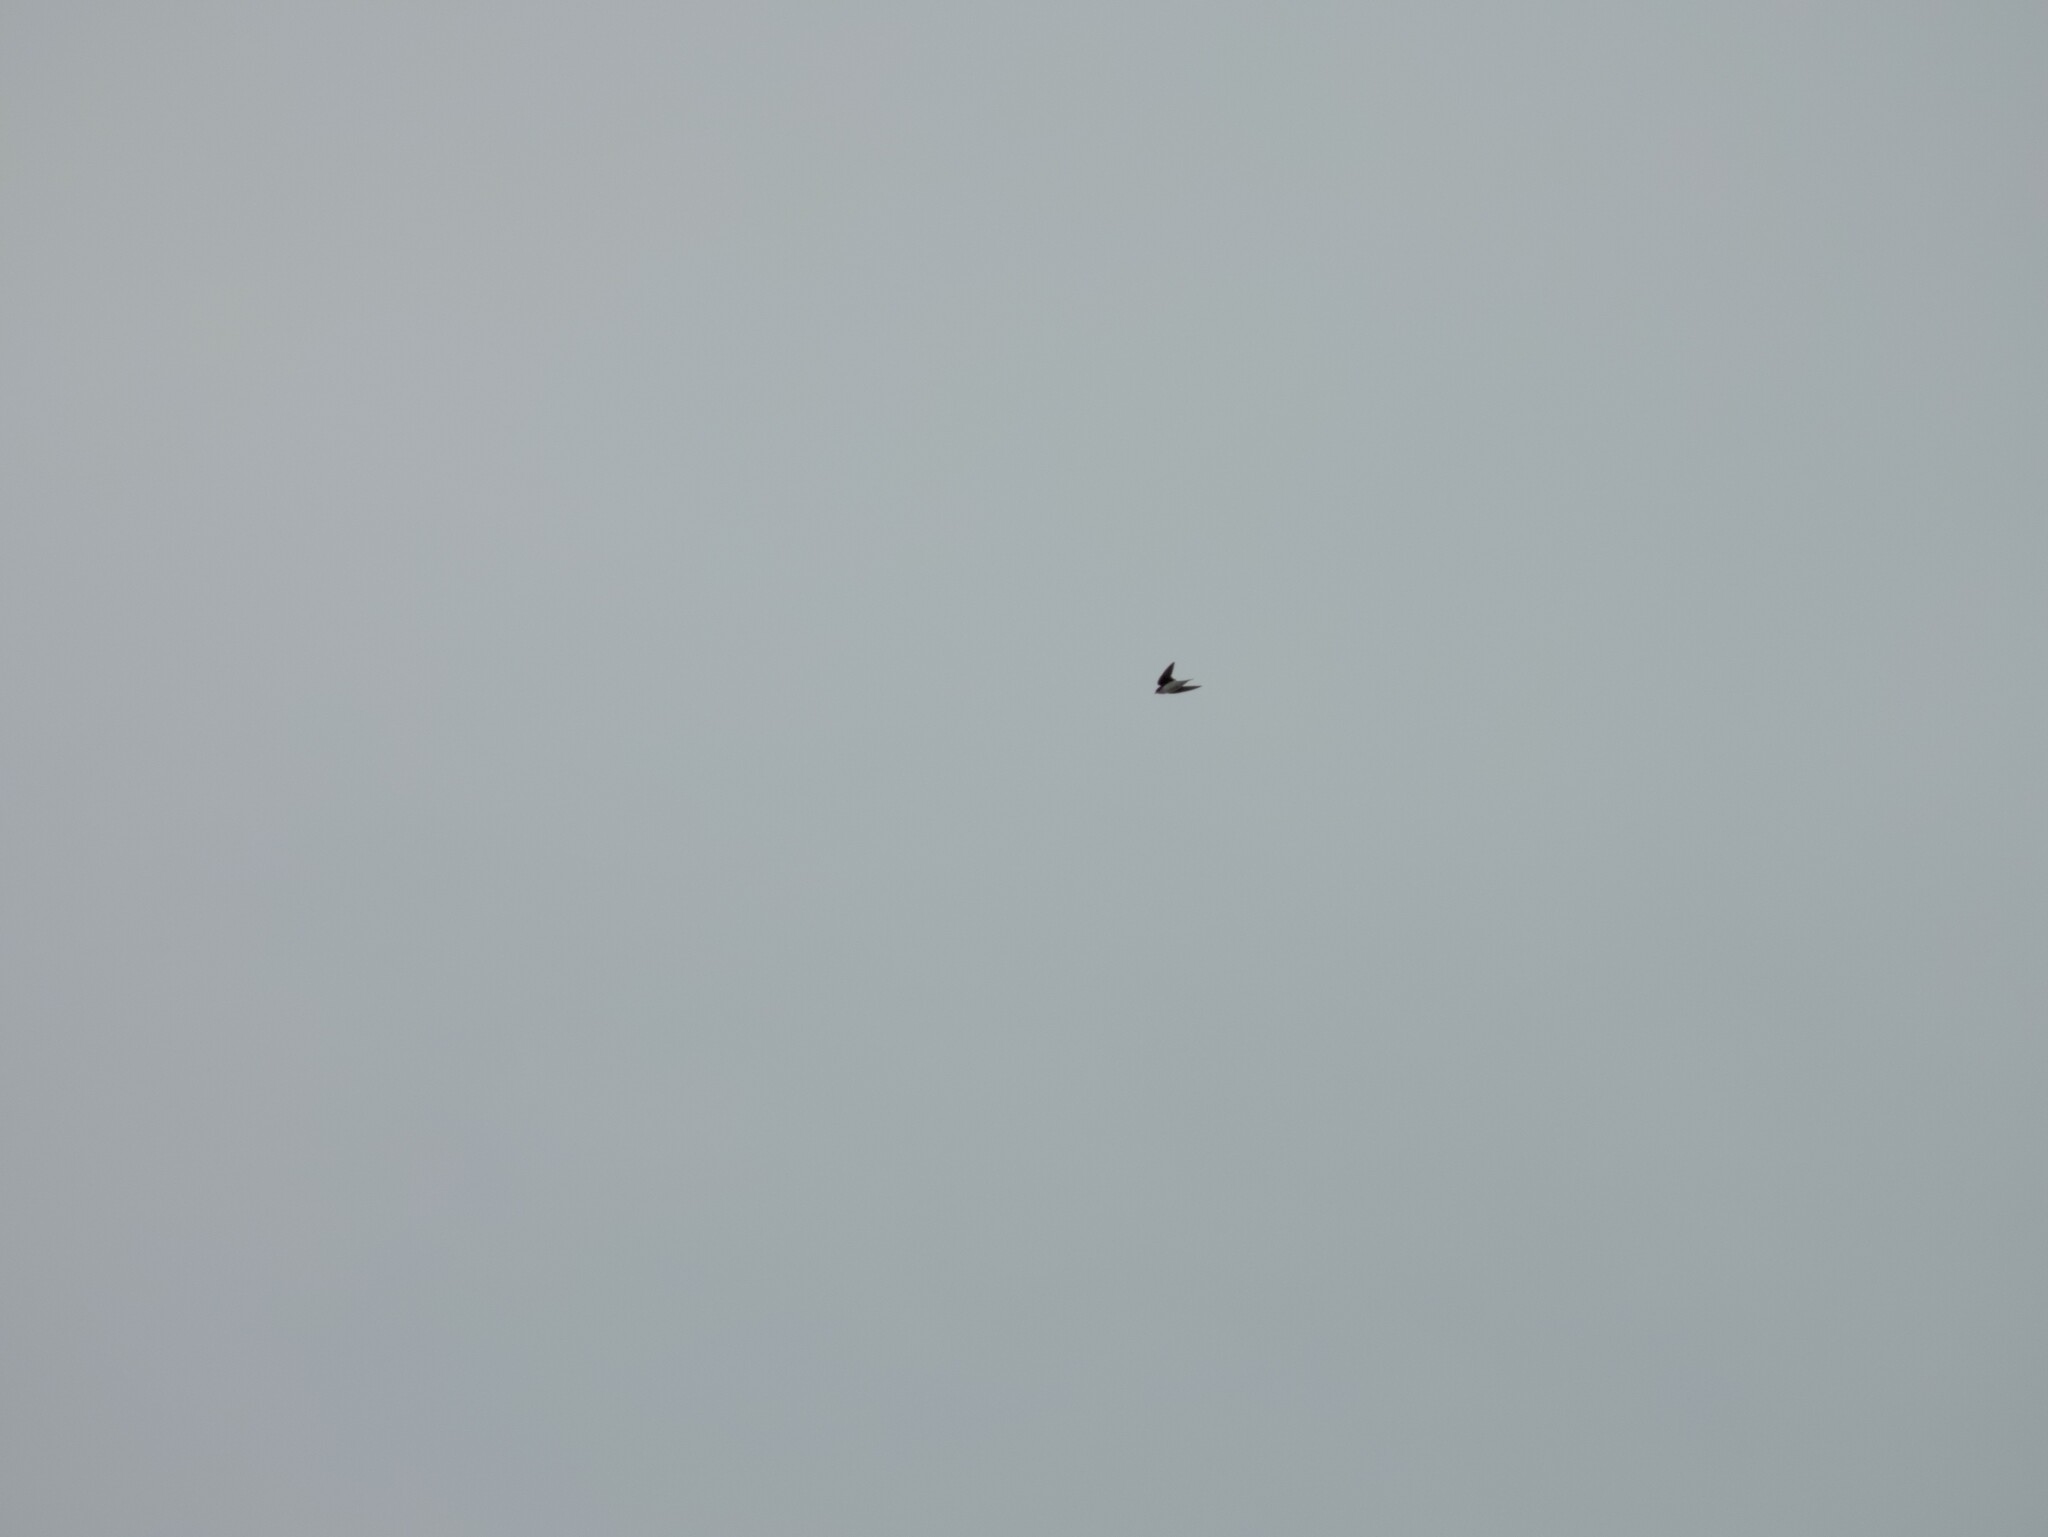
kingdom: Animalia
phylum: Chordata
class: Aves
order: Passeriformes
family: Hirundinidae
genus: Tachycineta
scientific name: Tachycineta bicolor
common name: Tree swallow
